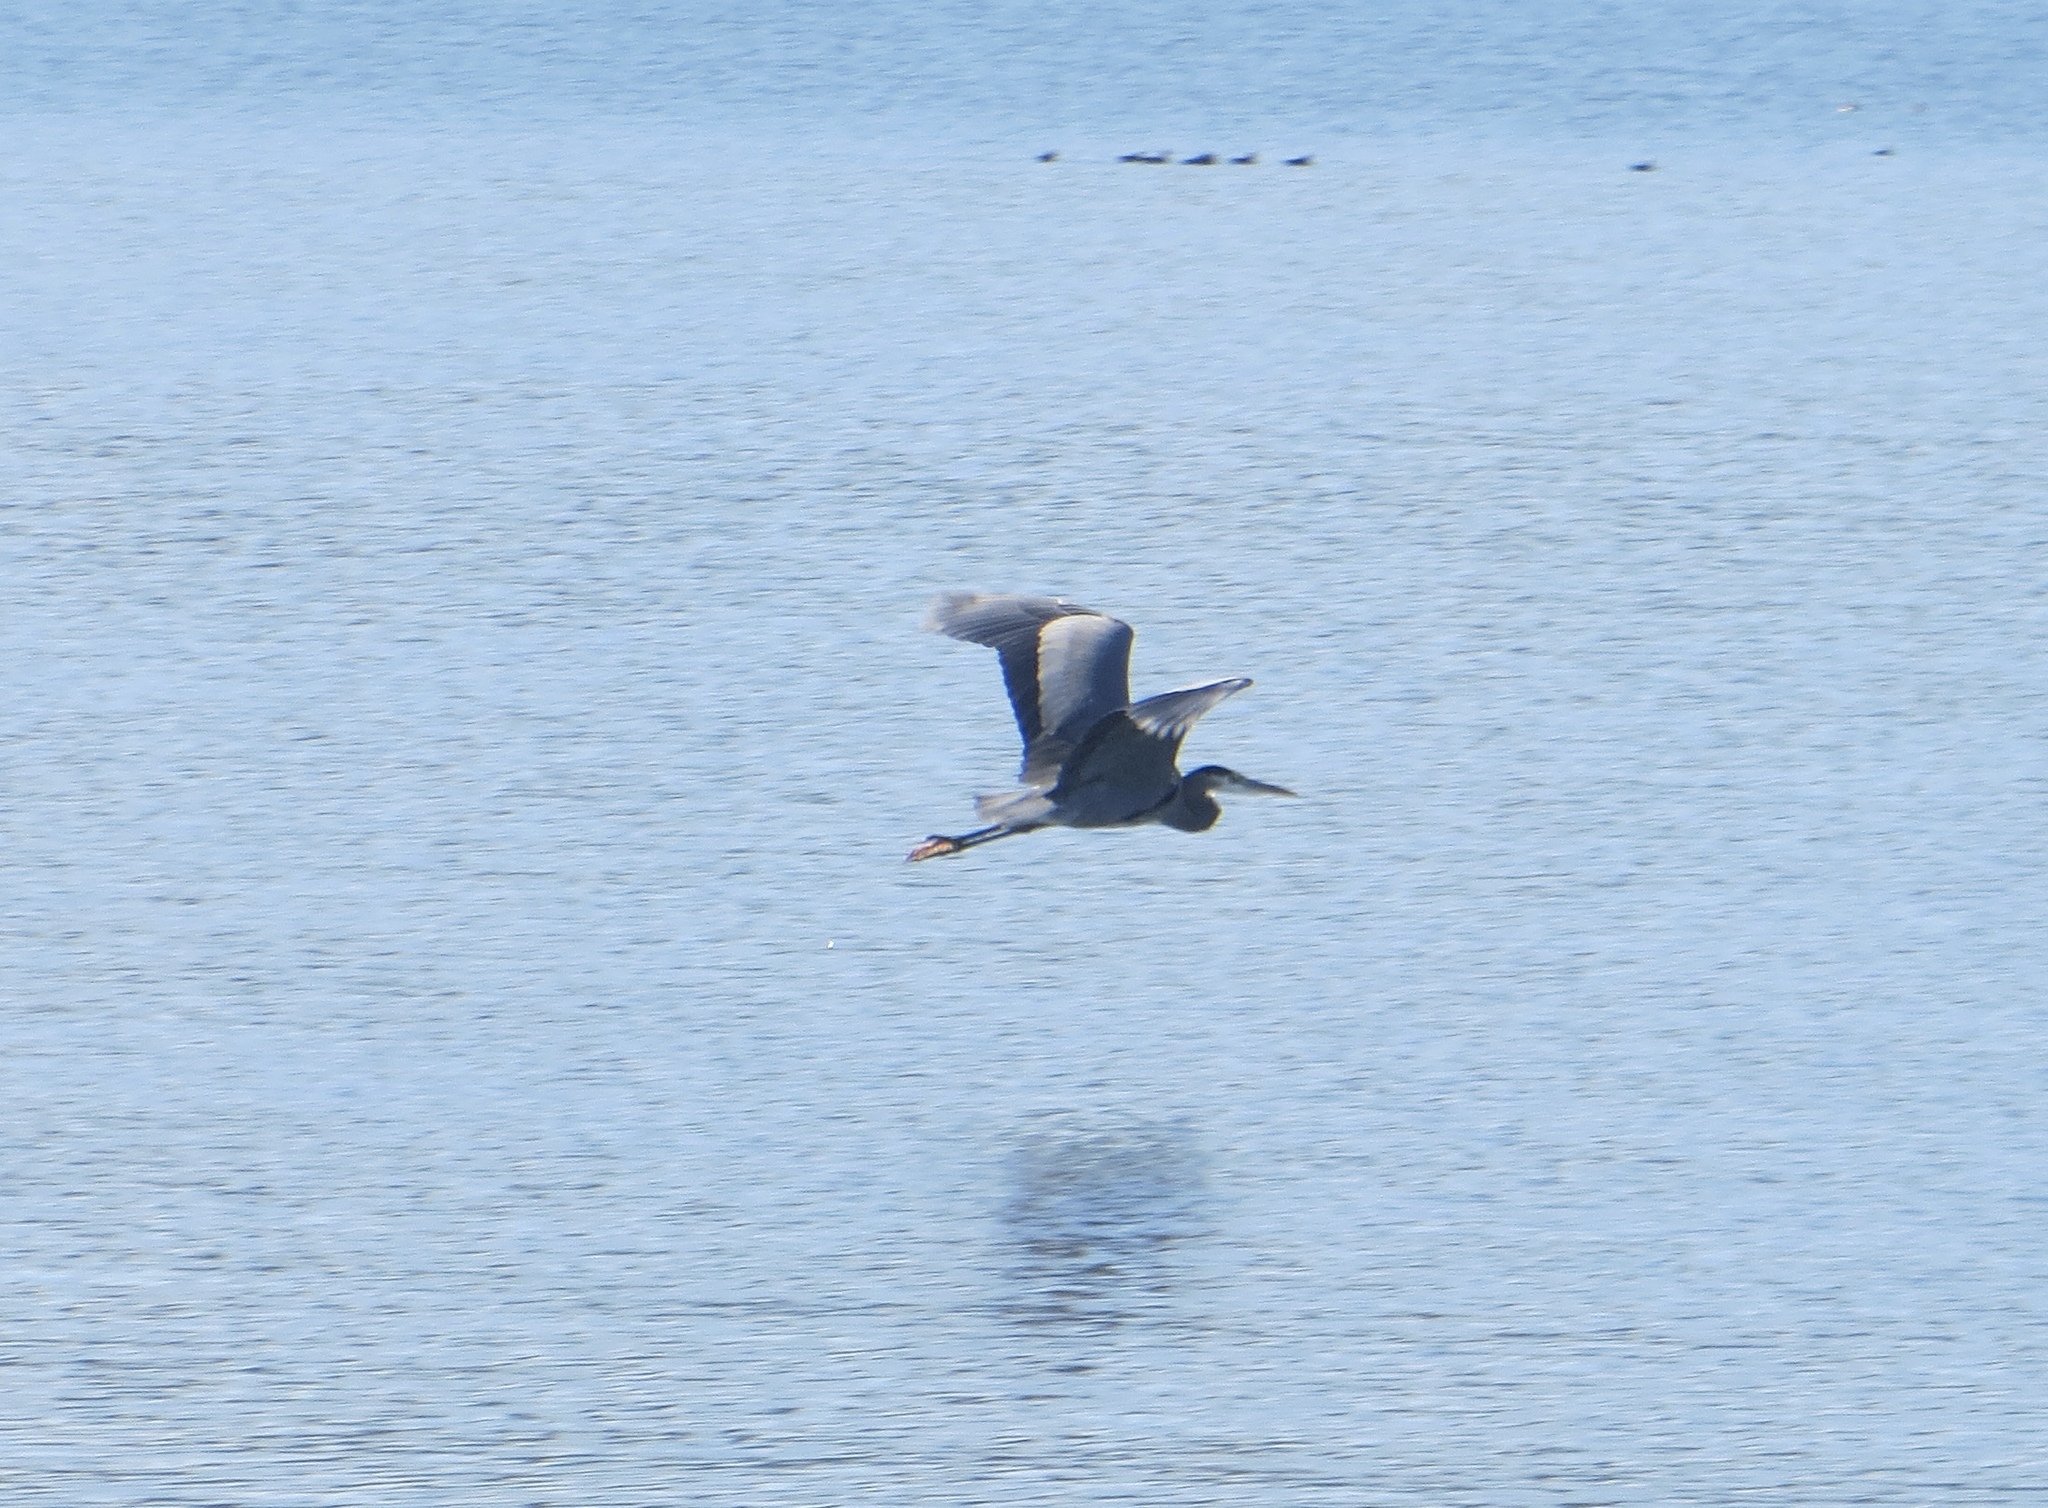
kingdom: Animalia
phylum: Chordata
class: Aves
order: Pelecaniformes
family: Ardeidae
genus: Ardea
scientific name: Ardea herodias
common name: Great blue heron
